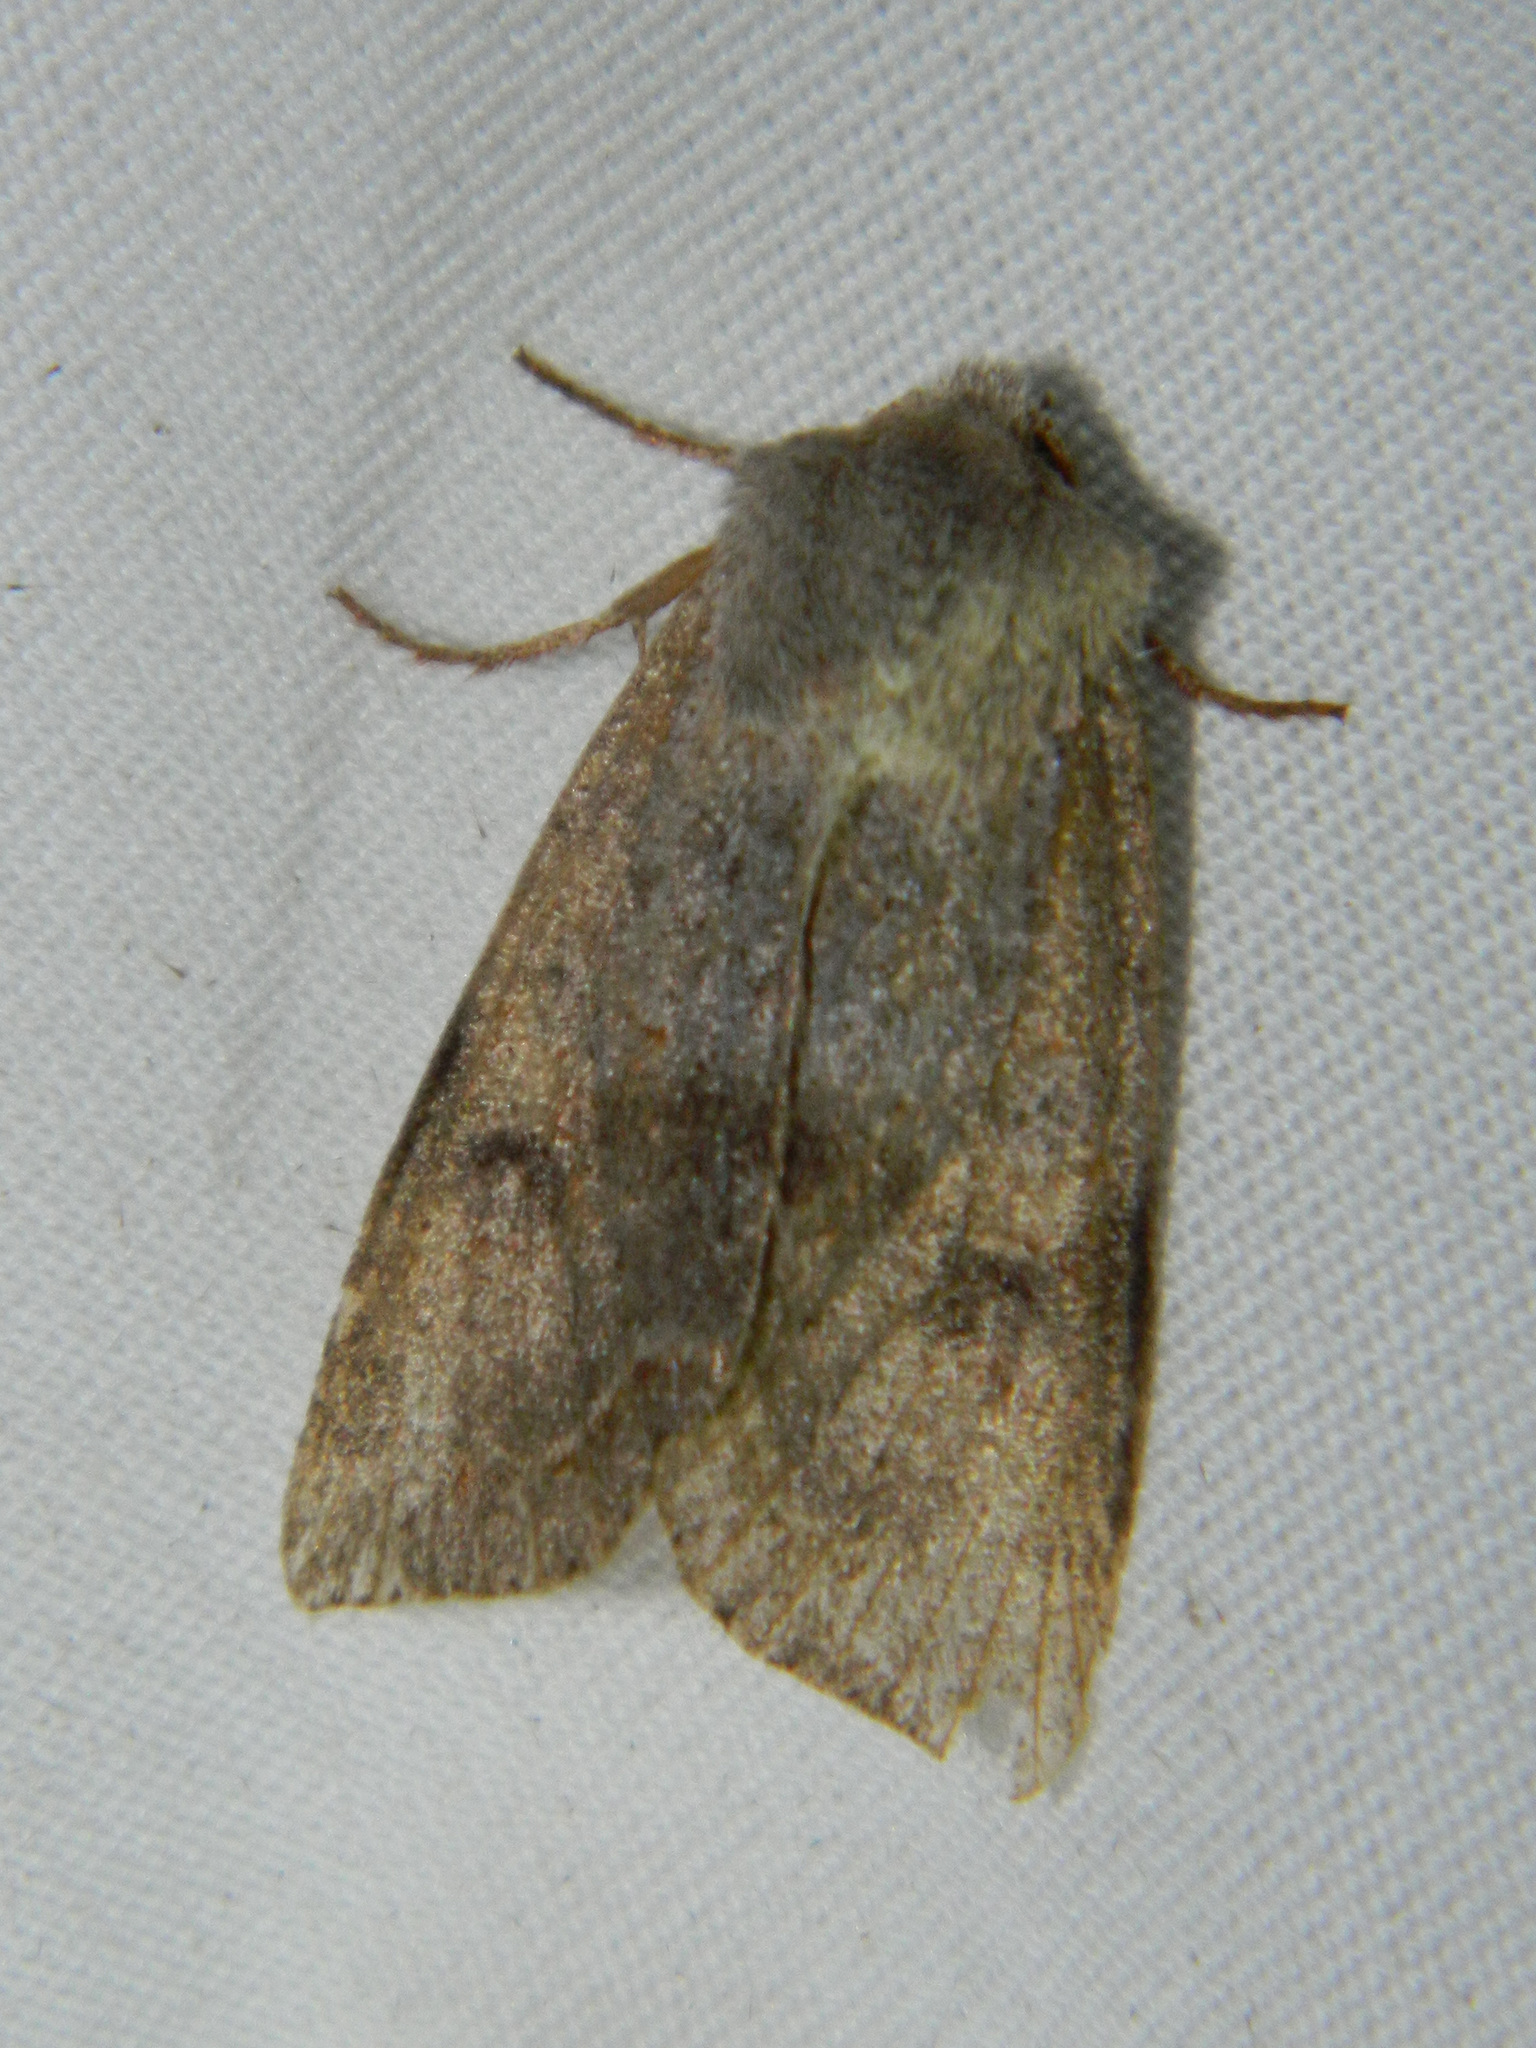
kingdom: Animalia
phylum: Arthropoda
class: Insecta
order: Lepidoptera
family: Noctuidae
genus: Orthosia
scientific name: Orthosia hibisci
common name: Green fruitworm
